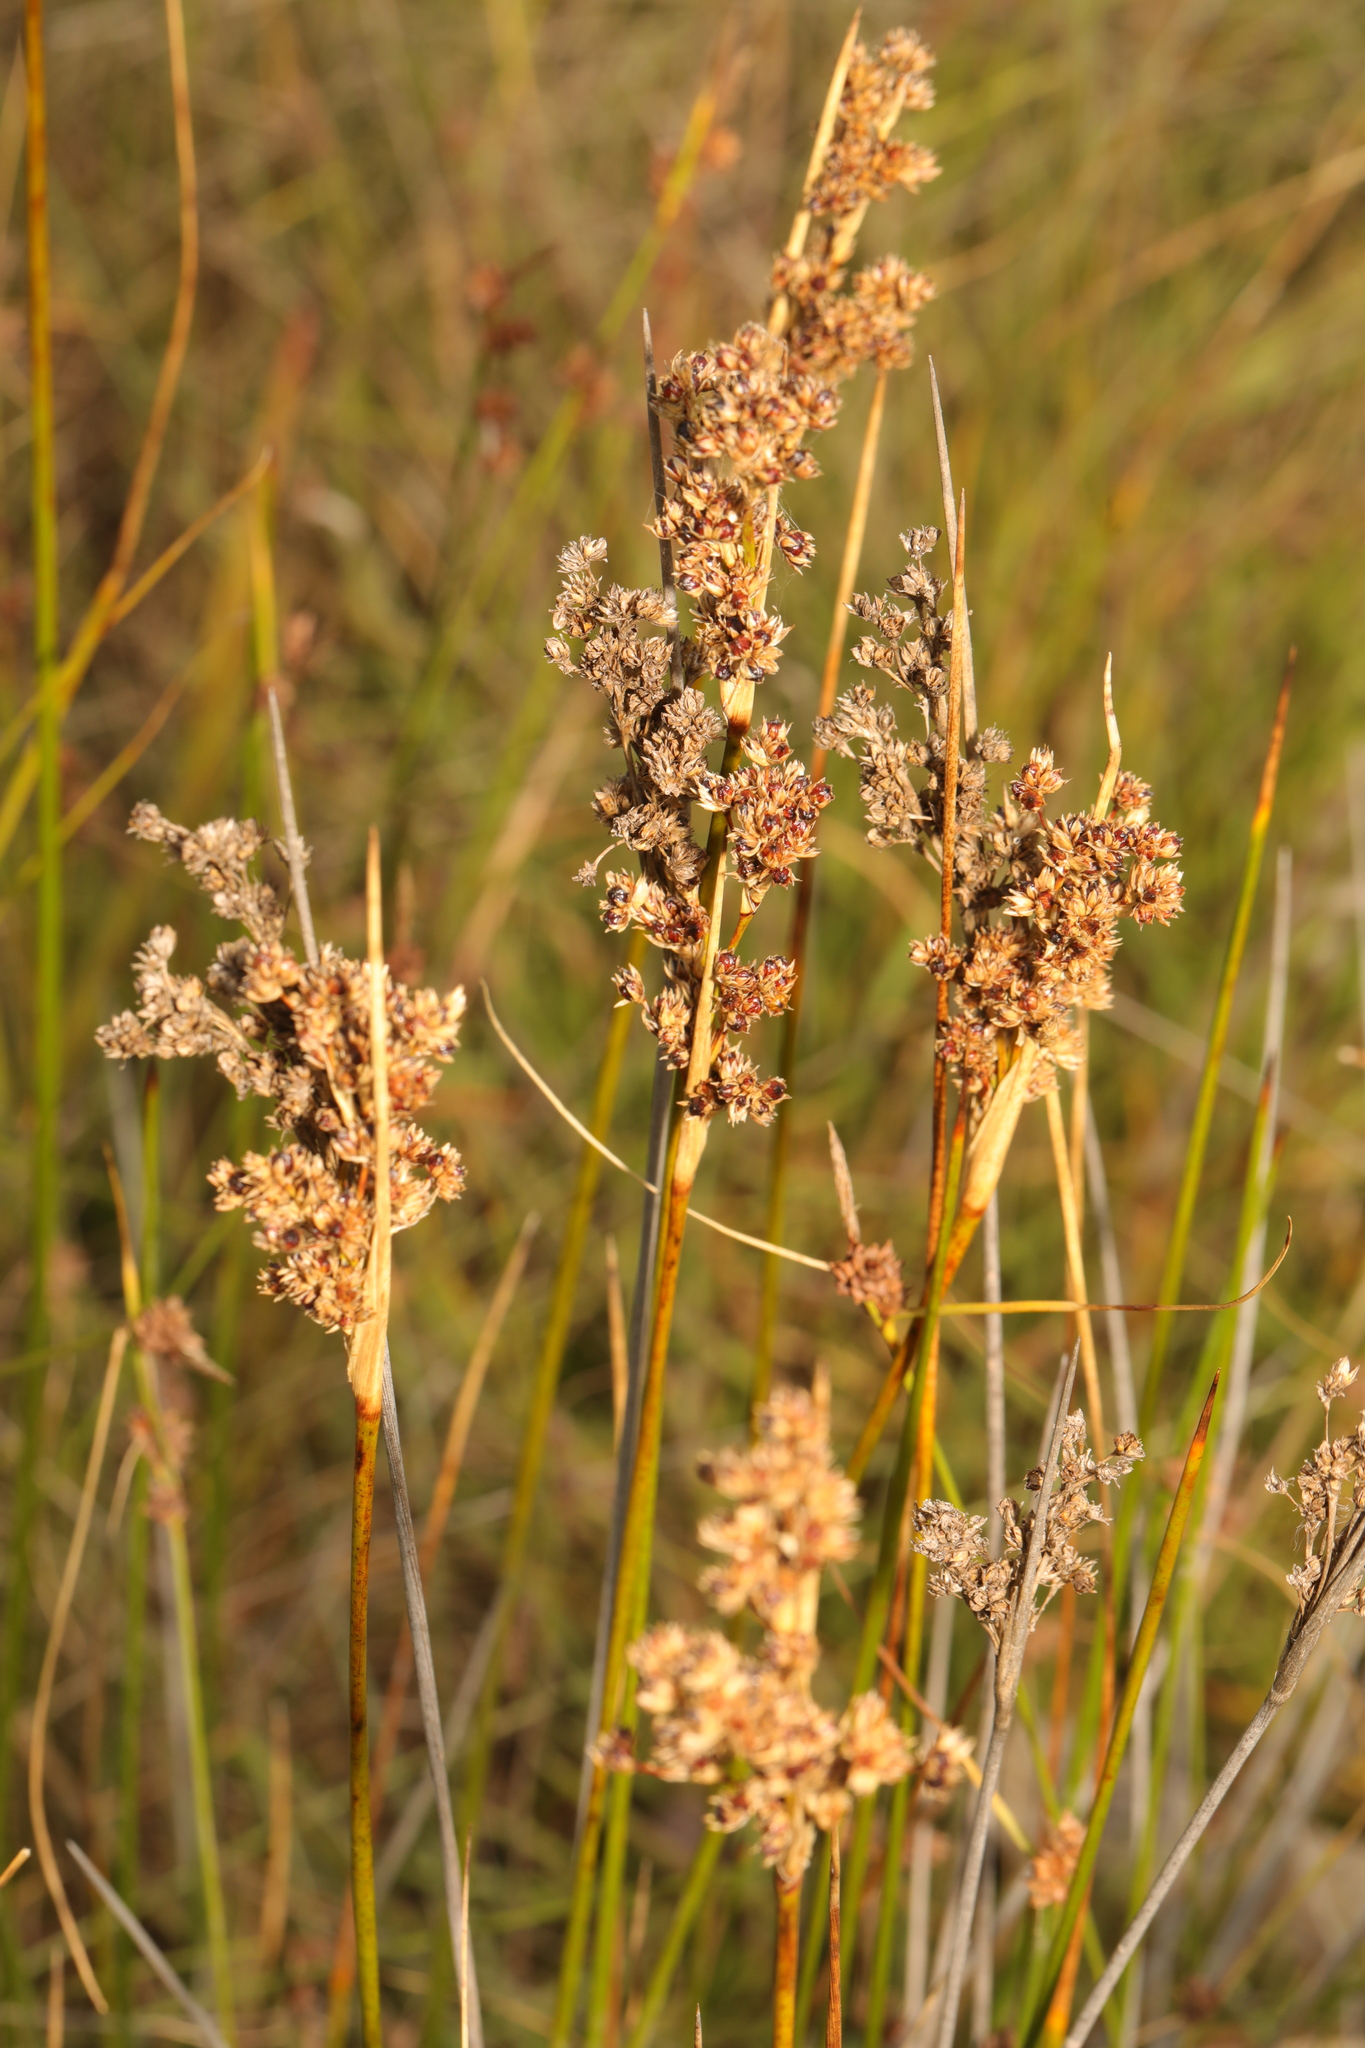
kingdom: Plantae
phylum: Tracheophyta
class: Liliopsida
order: Poales
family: Juncaceae
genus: Juncus
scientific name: Juncus maritimus
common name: Sea rush
